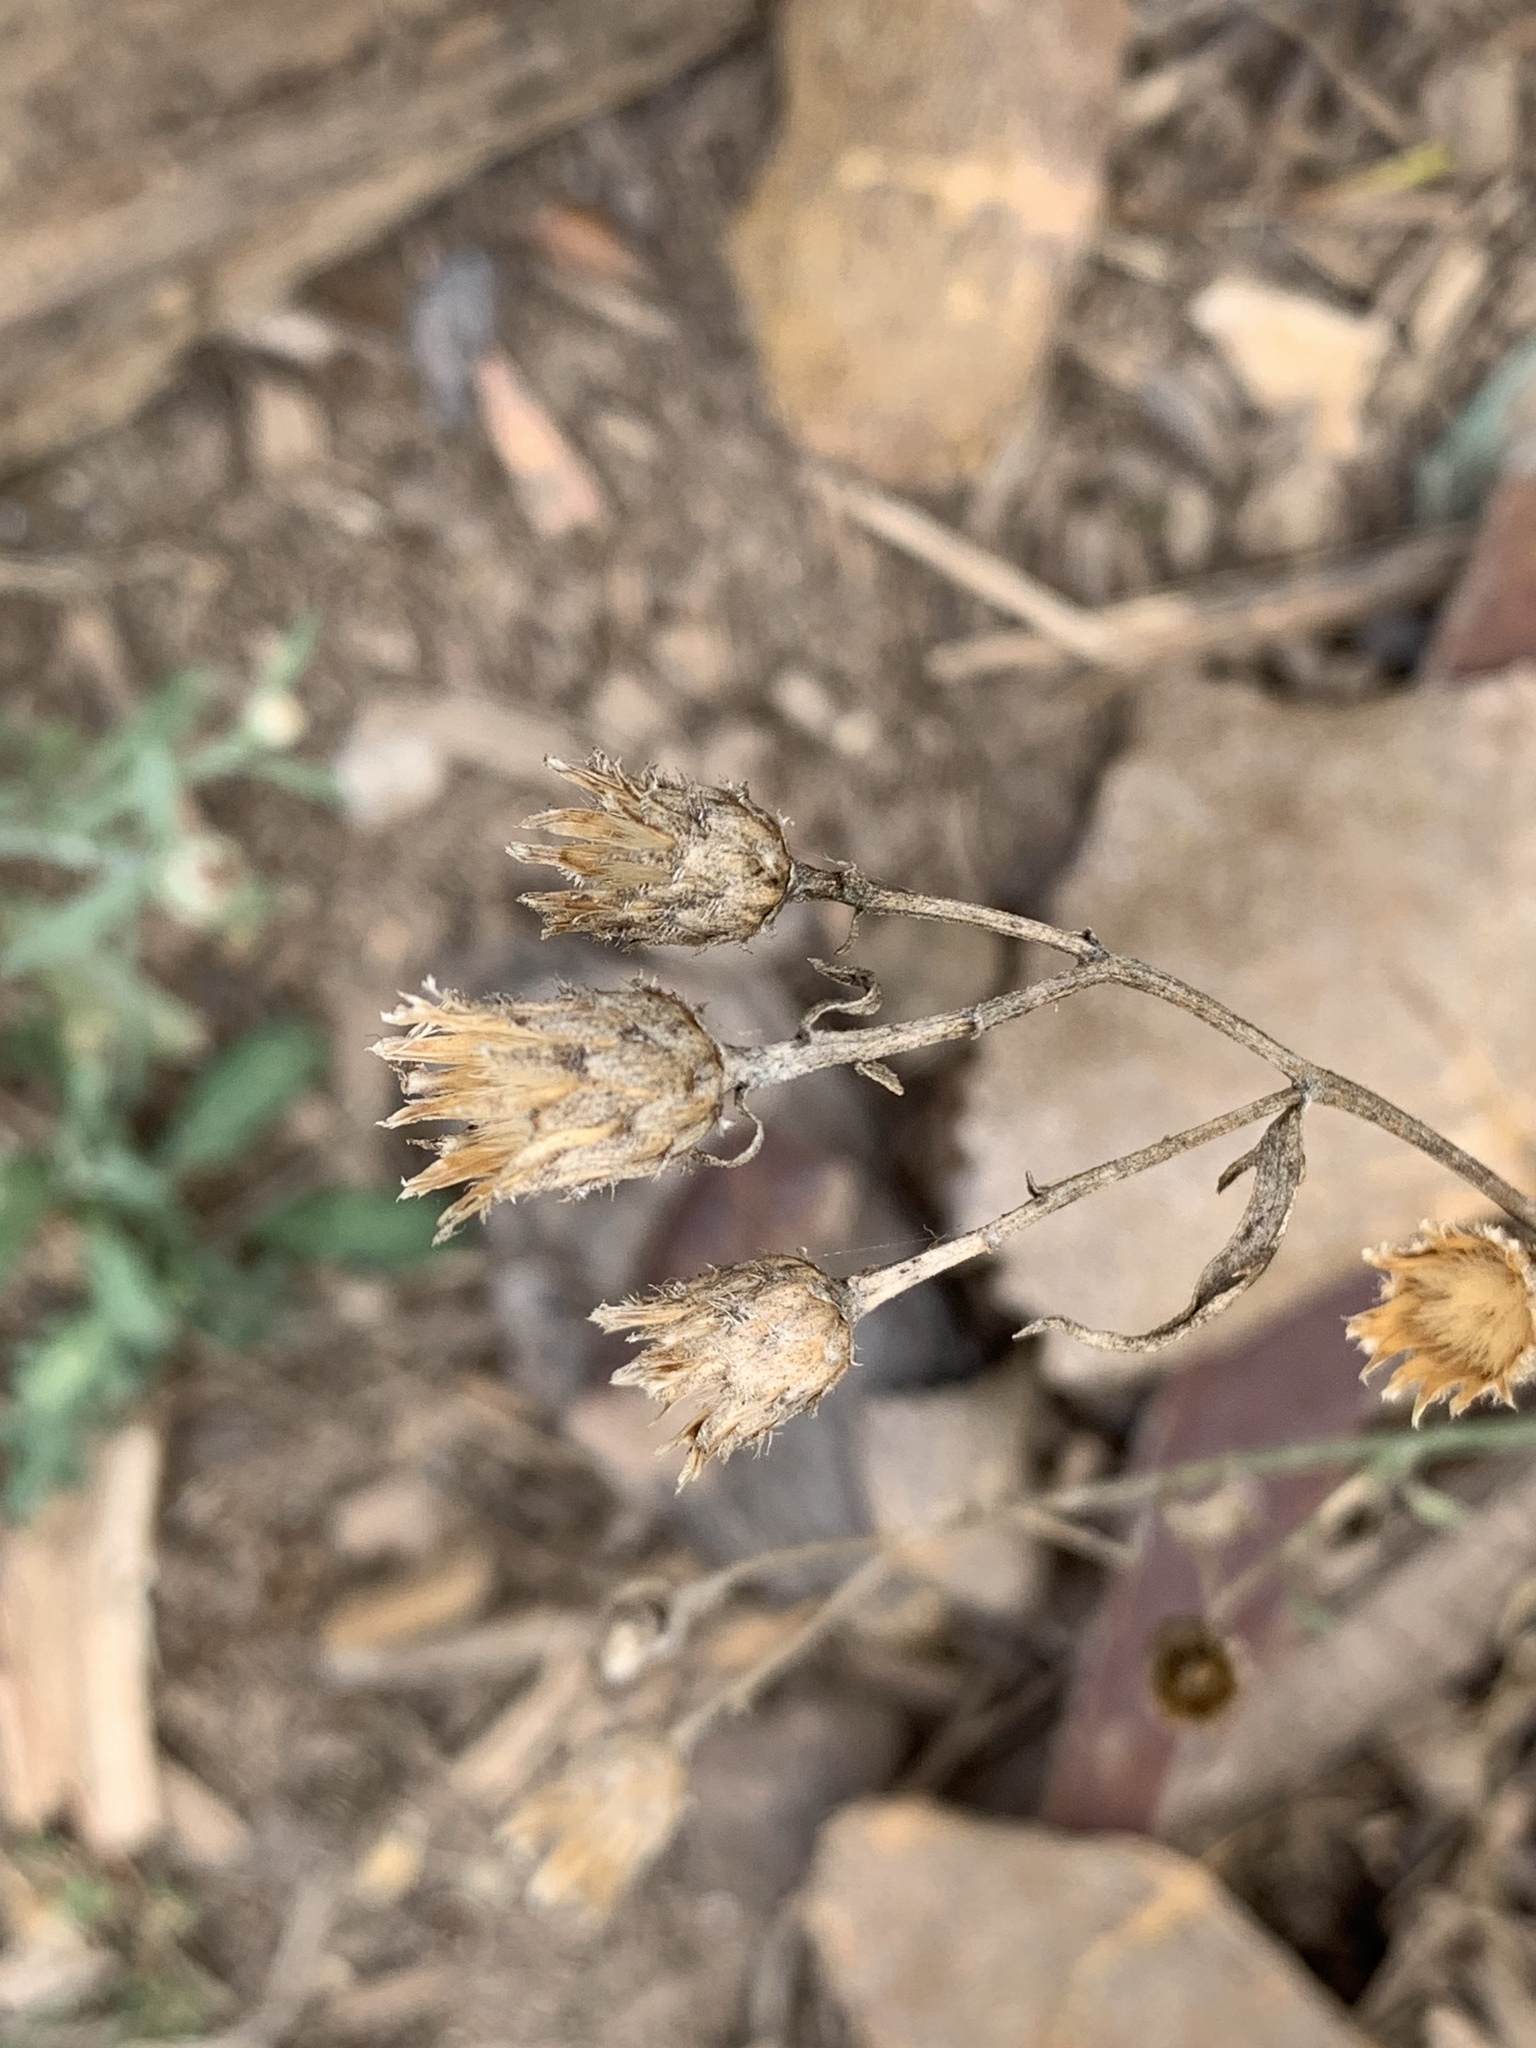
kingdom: Plantae
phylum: Tracheophyta
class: Magnoliopsida
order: Asterales
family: Asteraceae
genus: Centaurea
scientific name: Centaurea stoebe
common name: Spotted knapweed
